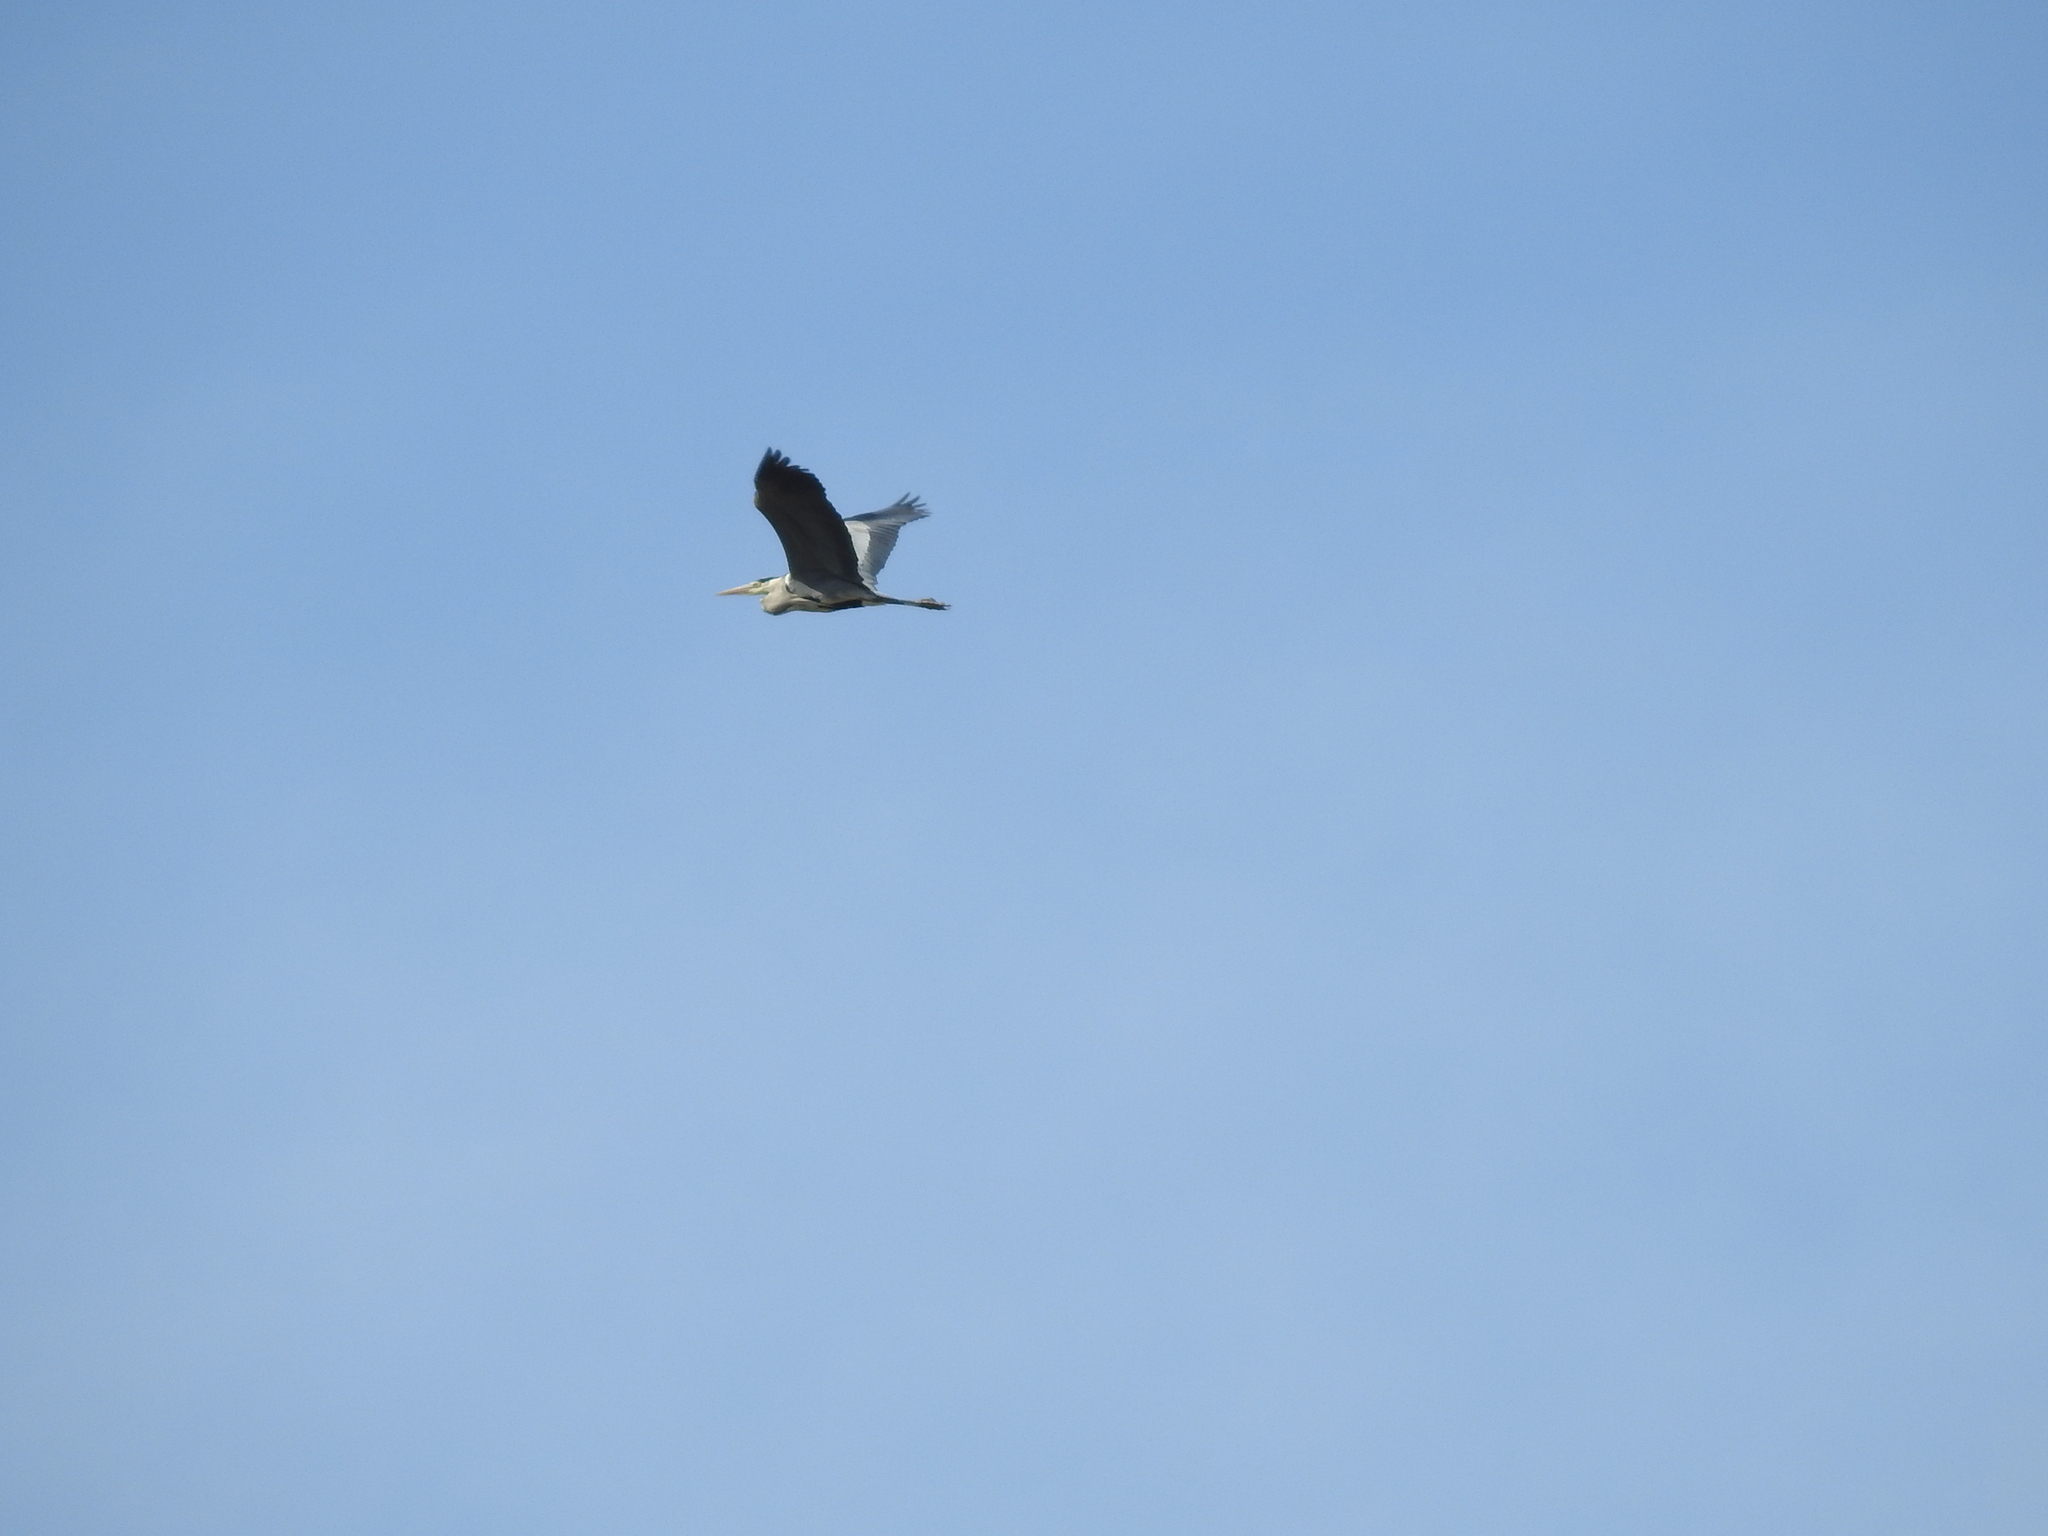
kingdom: Animalia
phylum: Chordata
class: Aves
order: Pelecaniformes
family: Ardeidae
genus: Ardea
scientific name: Ardea cinerea
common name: Grey heron
